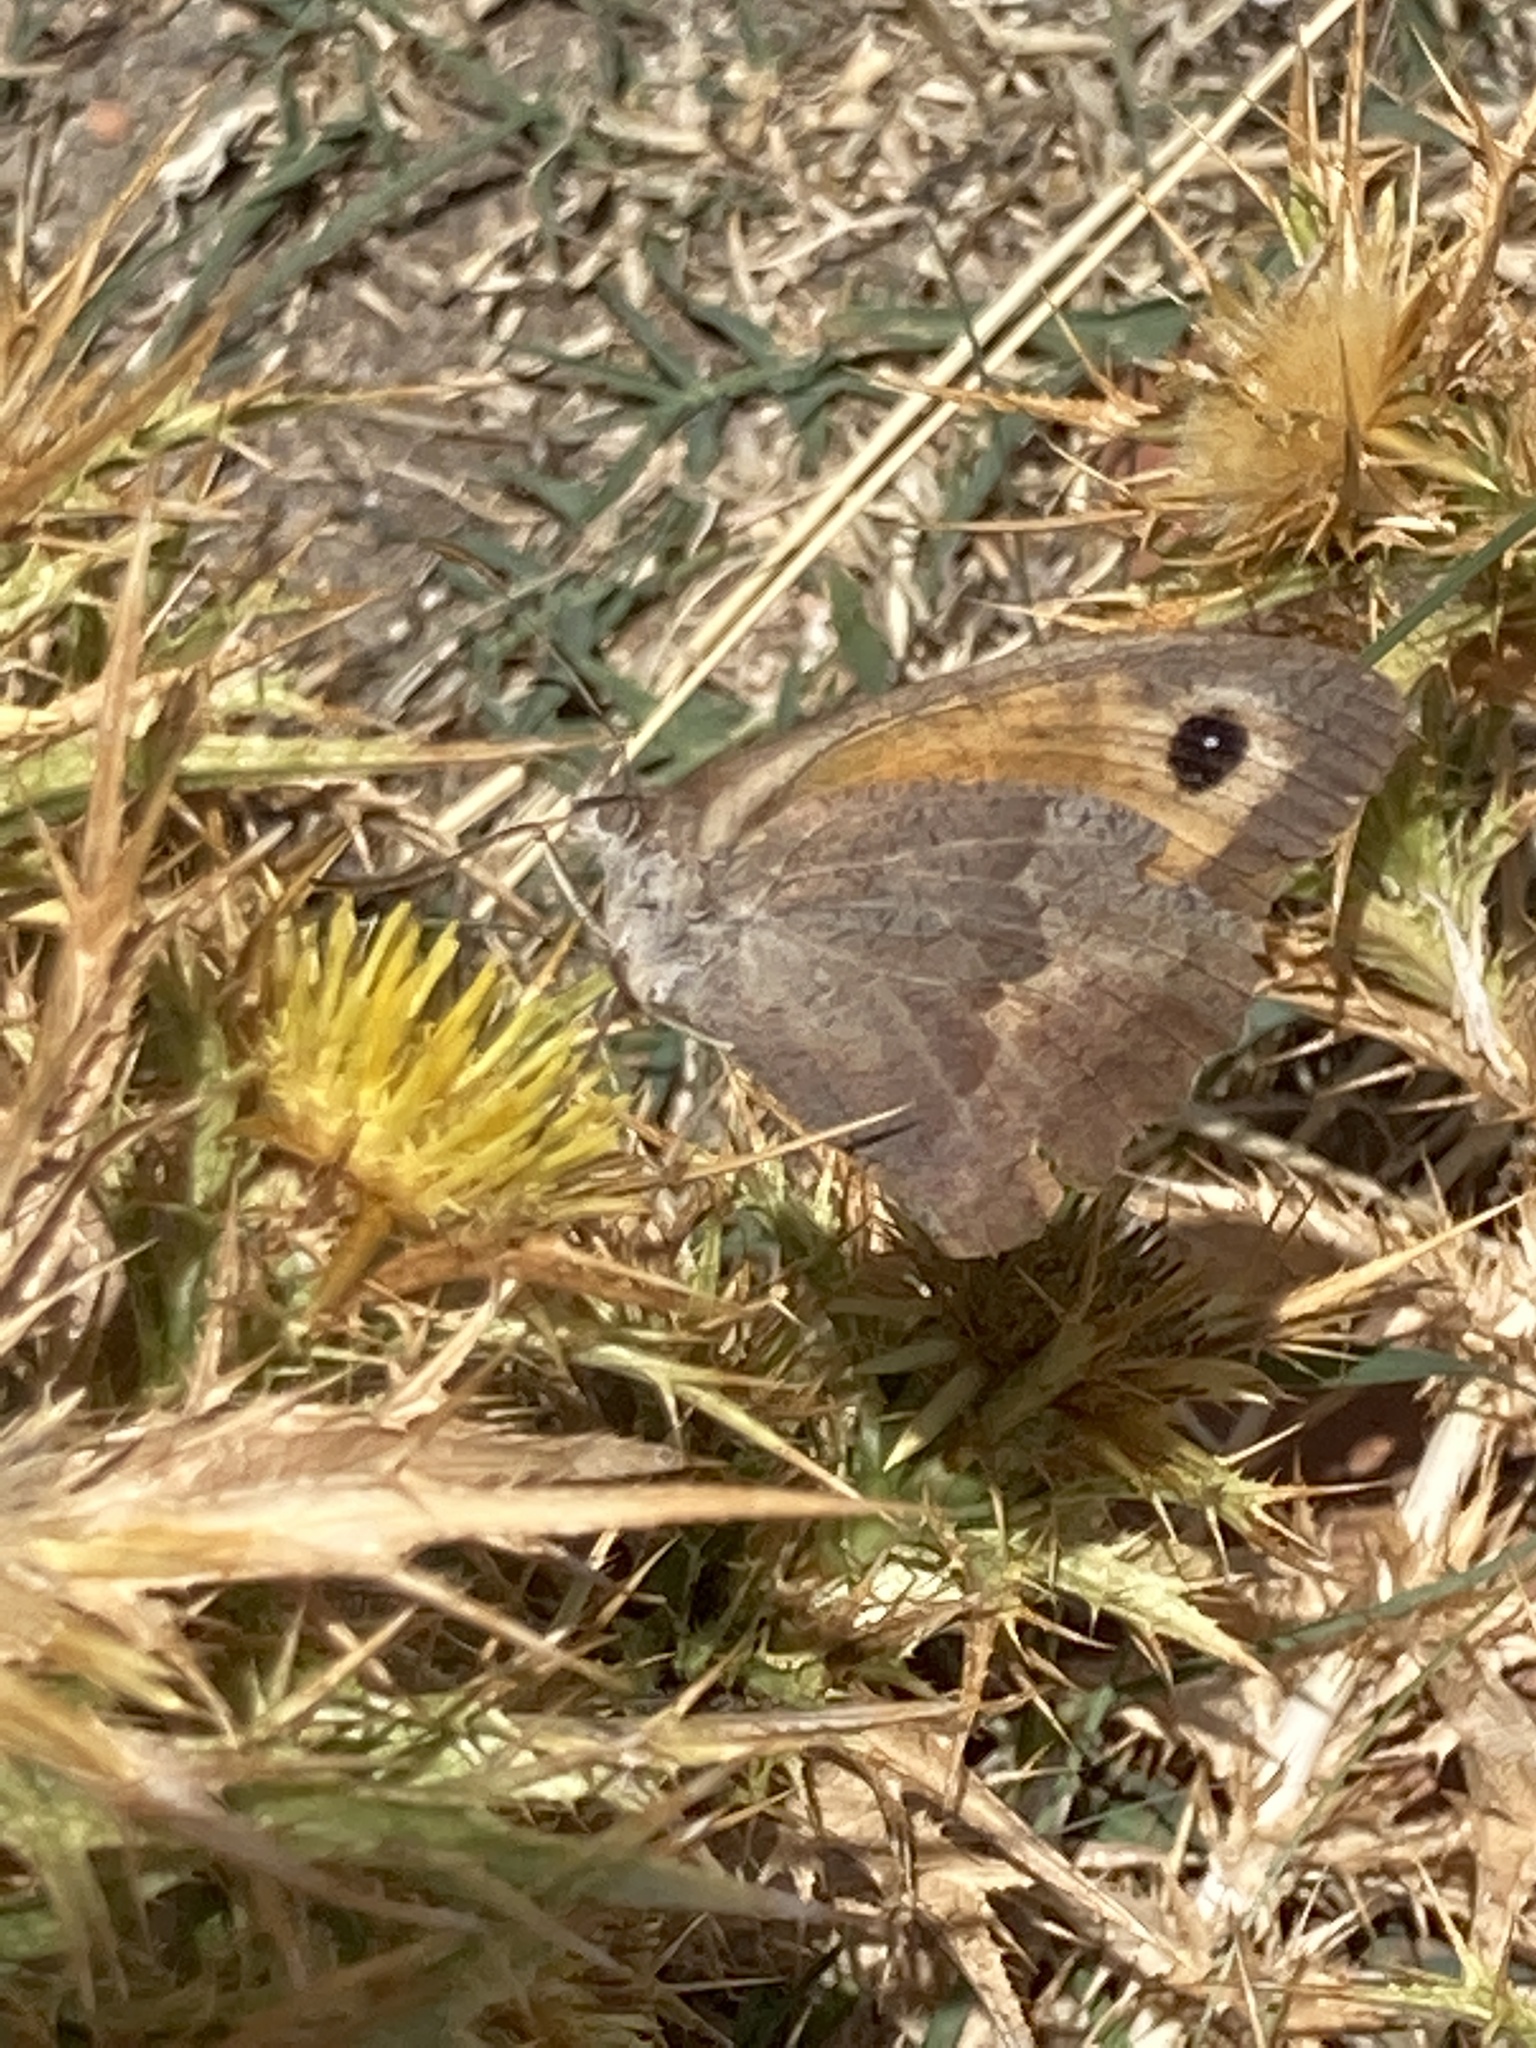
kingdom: Animalia
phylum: Arthropoda
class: Insecta
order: Lepidoptera
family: Nymphalidae
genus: Maniola
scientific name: Maniola jurtina
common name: Meadow brown
